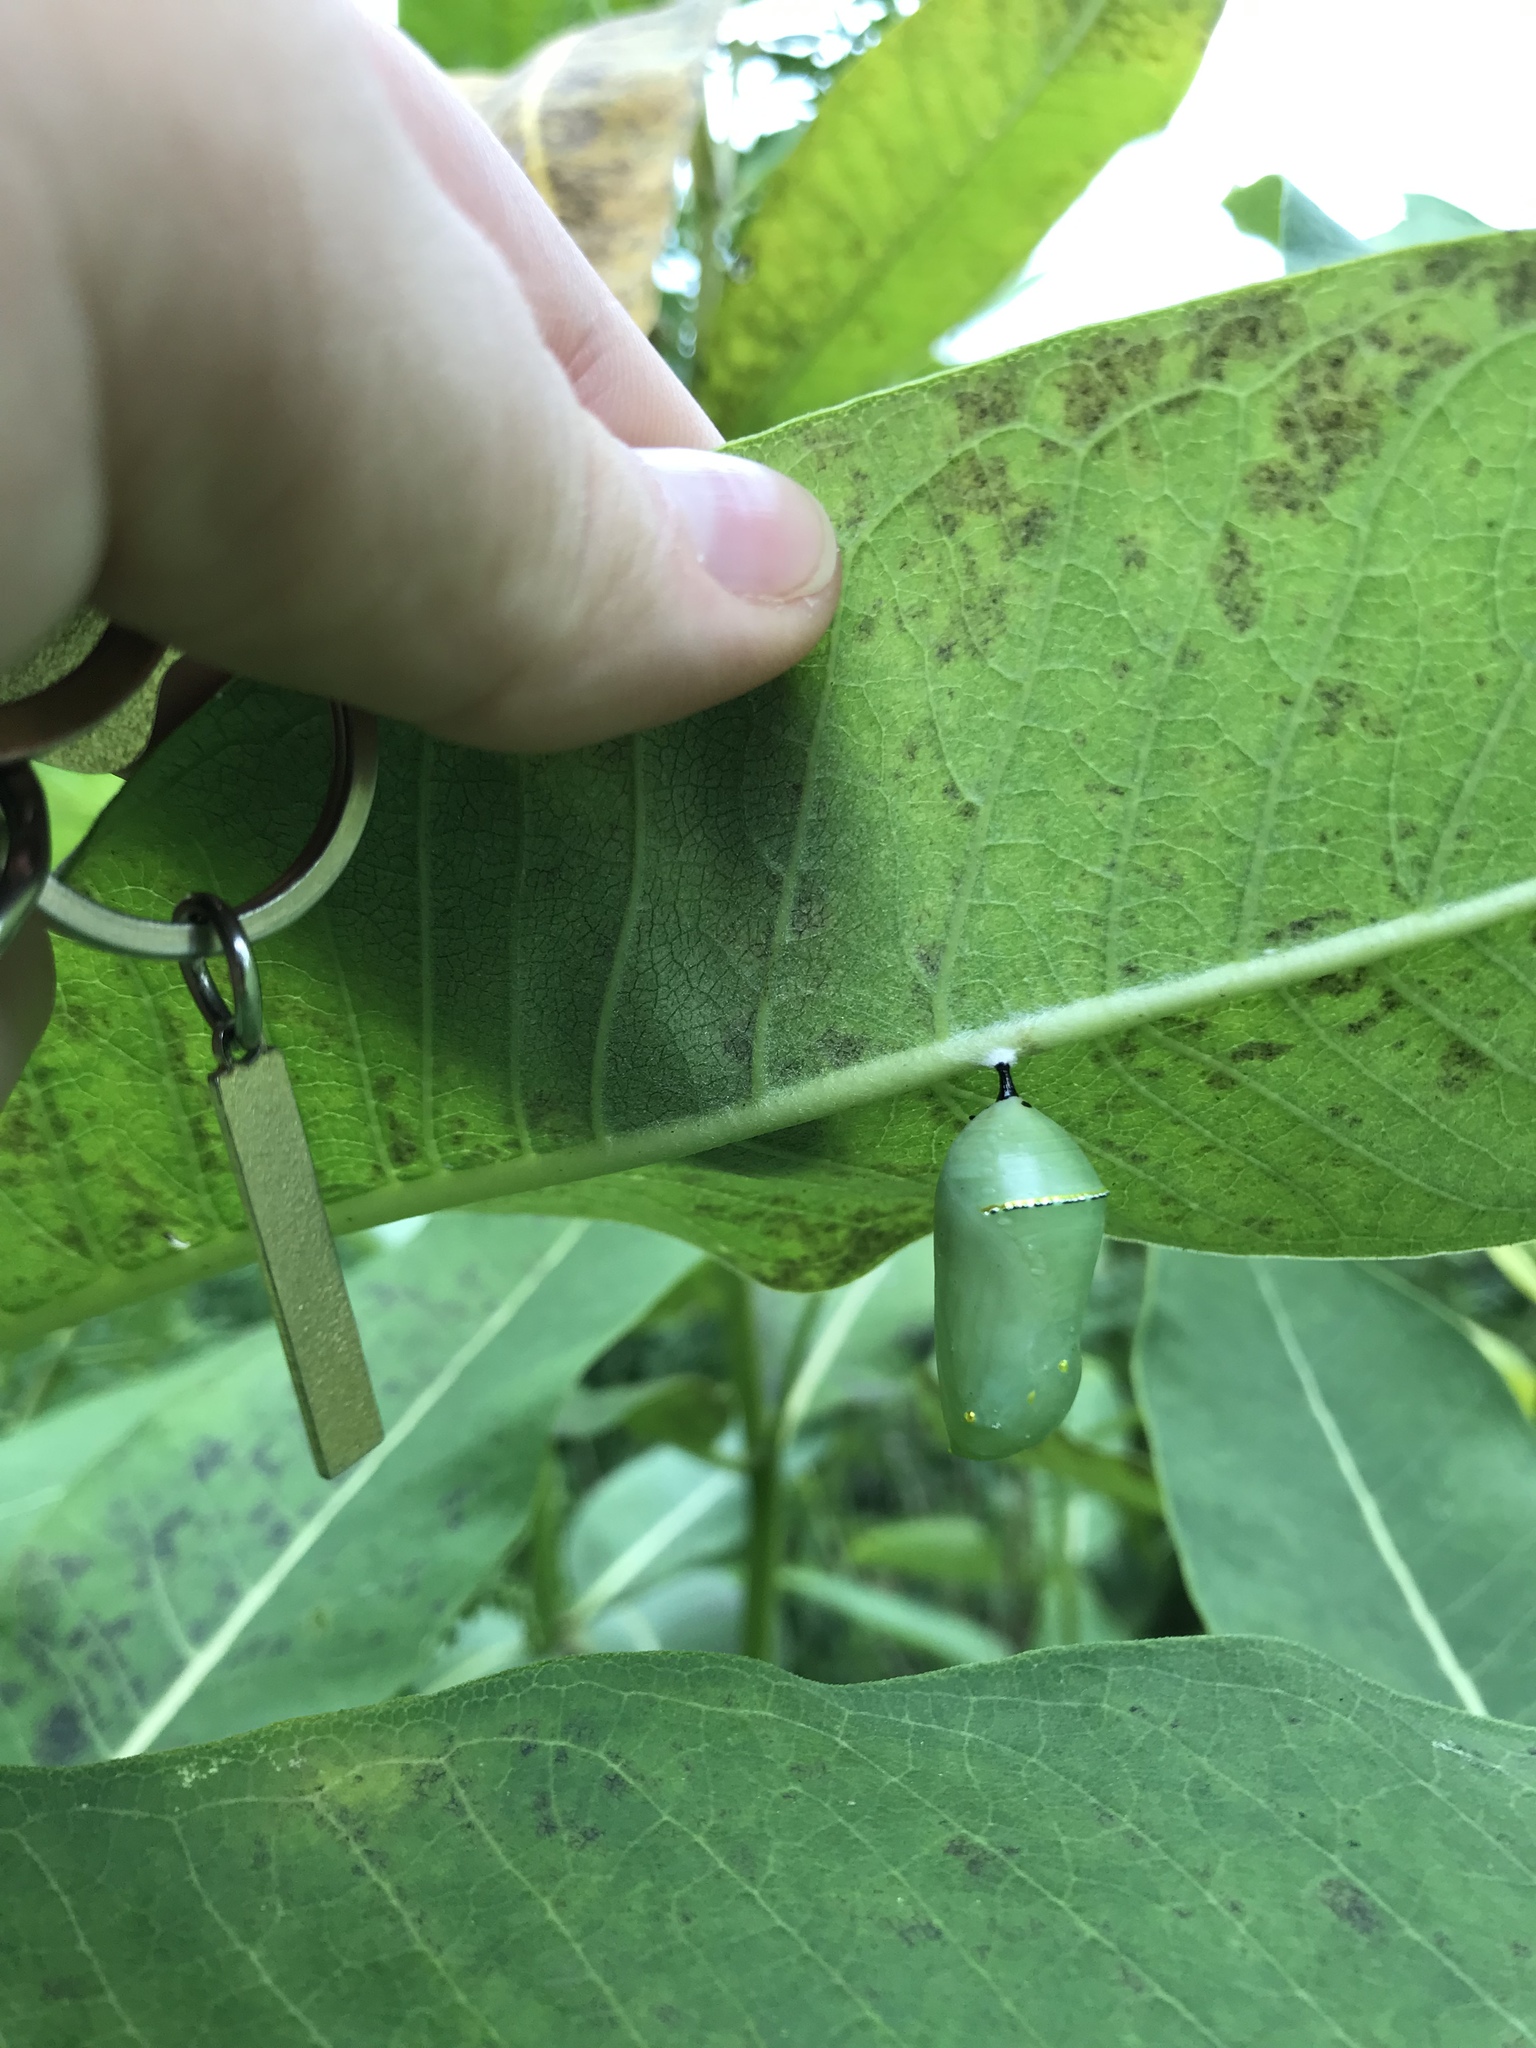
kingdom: Animalia
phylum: Arthropoda
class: Insecta
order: Lepidoptera
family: Nymphalidae
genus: Danaus
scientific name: Danaus plexippus
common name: Monarch
